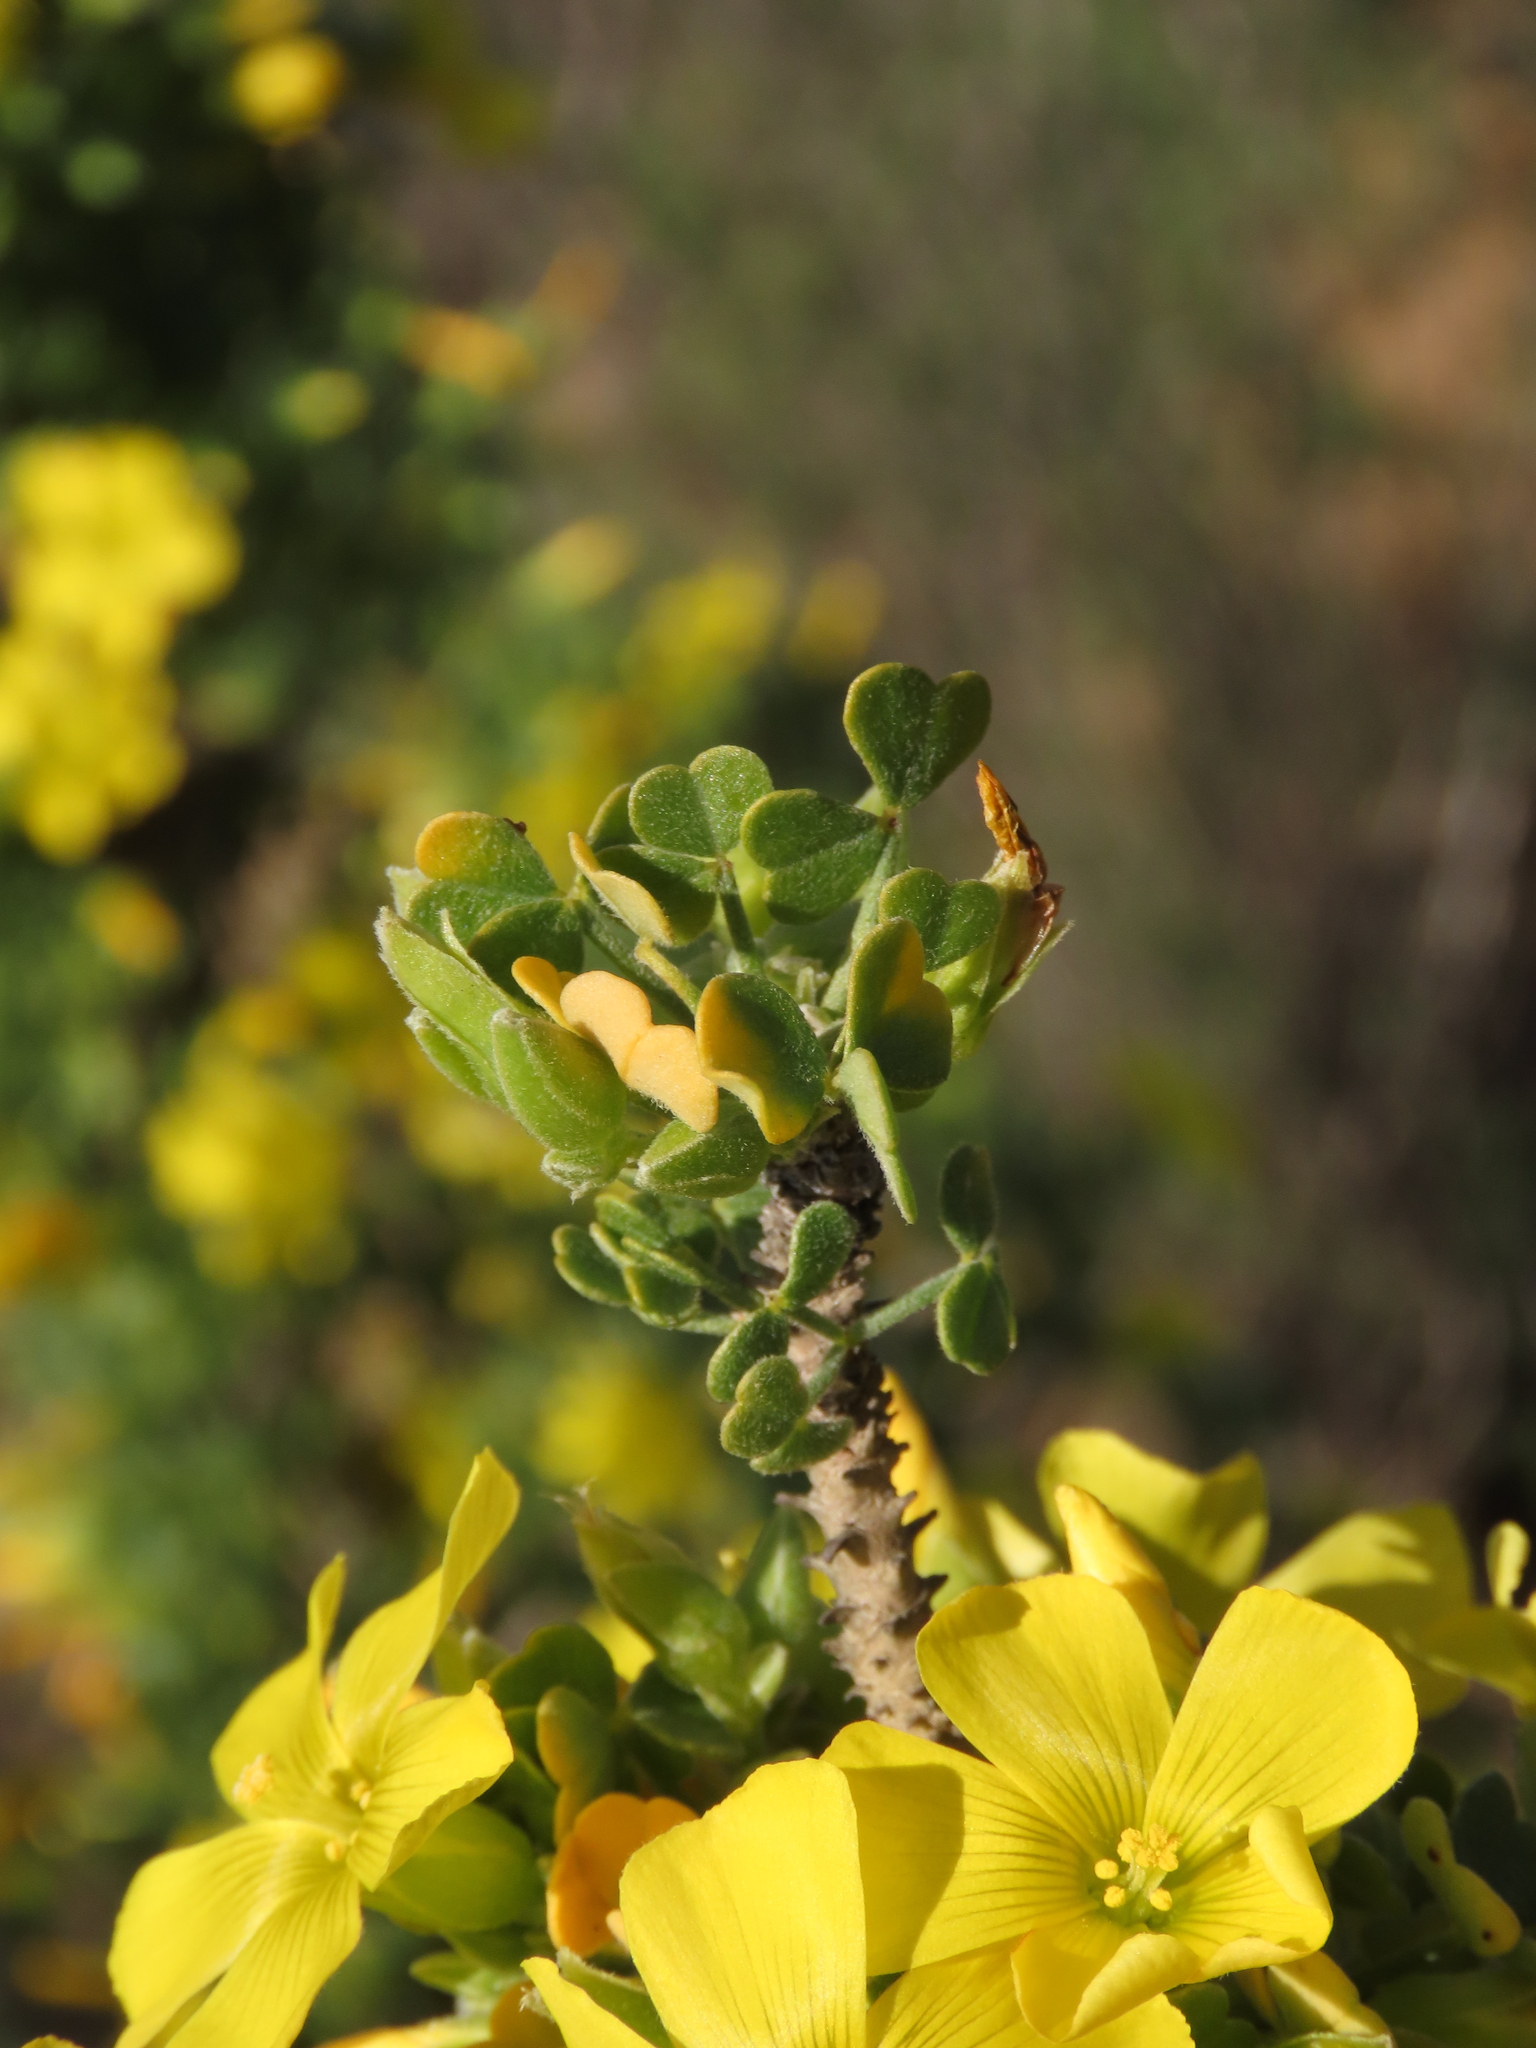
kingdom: Plantae
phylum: Tracheophyta
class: Magnoliopsida
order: Oxalidales
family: Oxalidaceae
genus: Oxalis
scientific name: Oxalis virgosa
